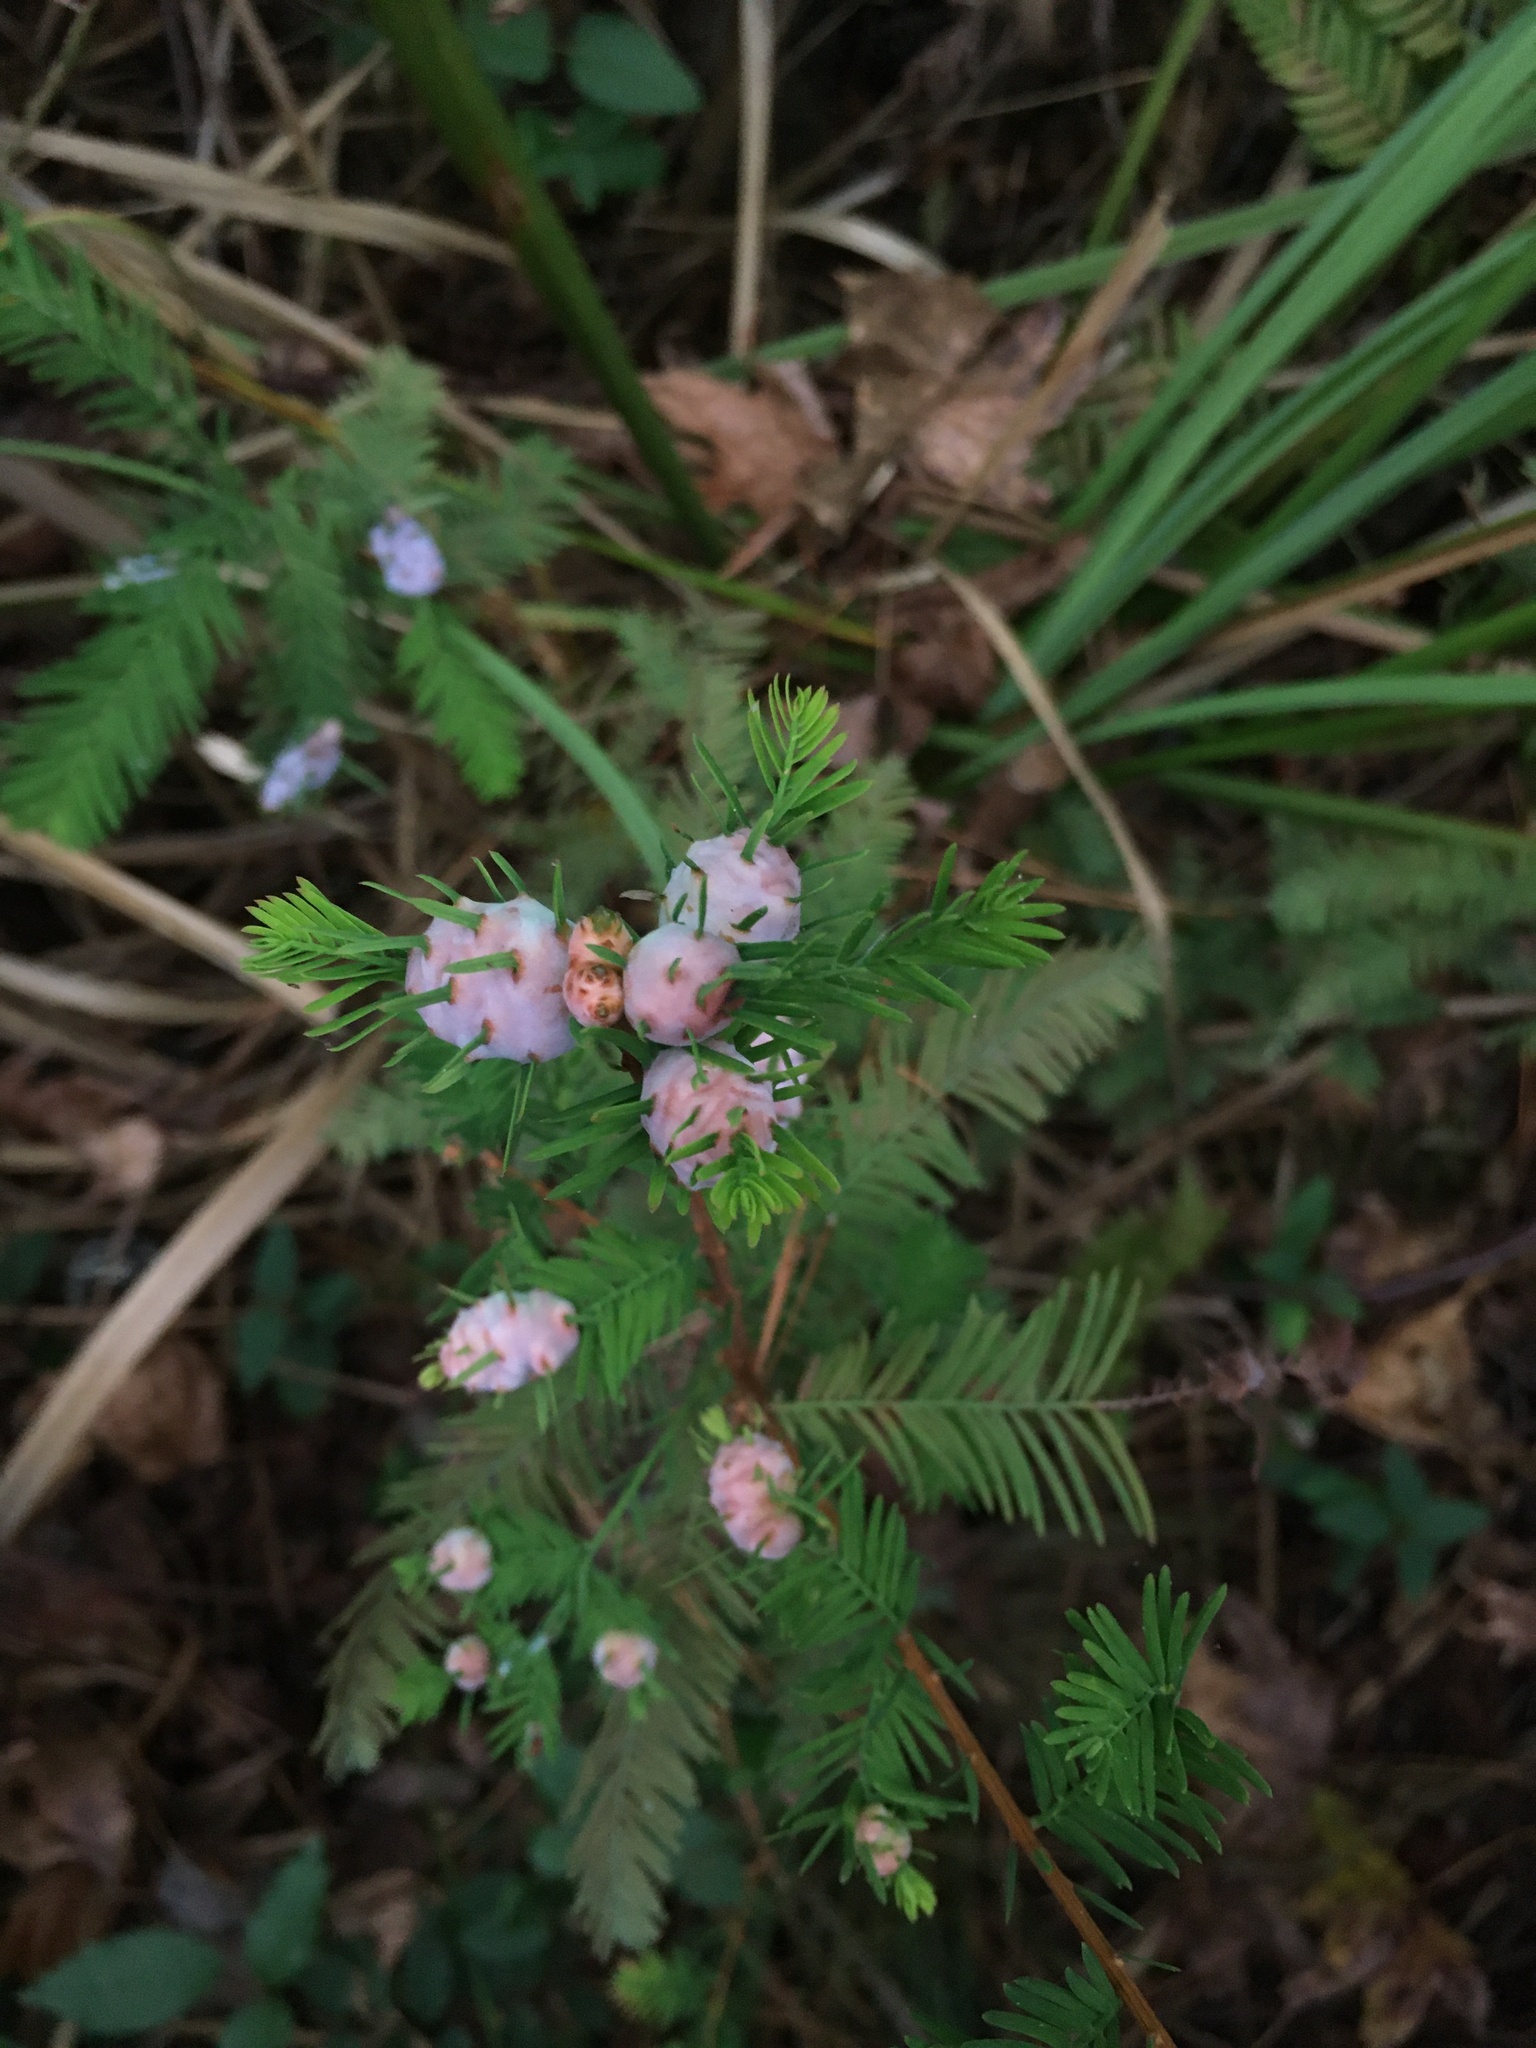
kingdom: Animalia
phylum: Arthropoda
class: Insecta
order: Diptera
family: Cecidomyiidae
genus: Taxodiomyia
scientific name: Taxodiomyia cupressiananassa
